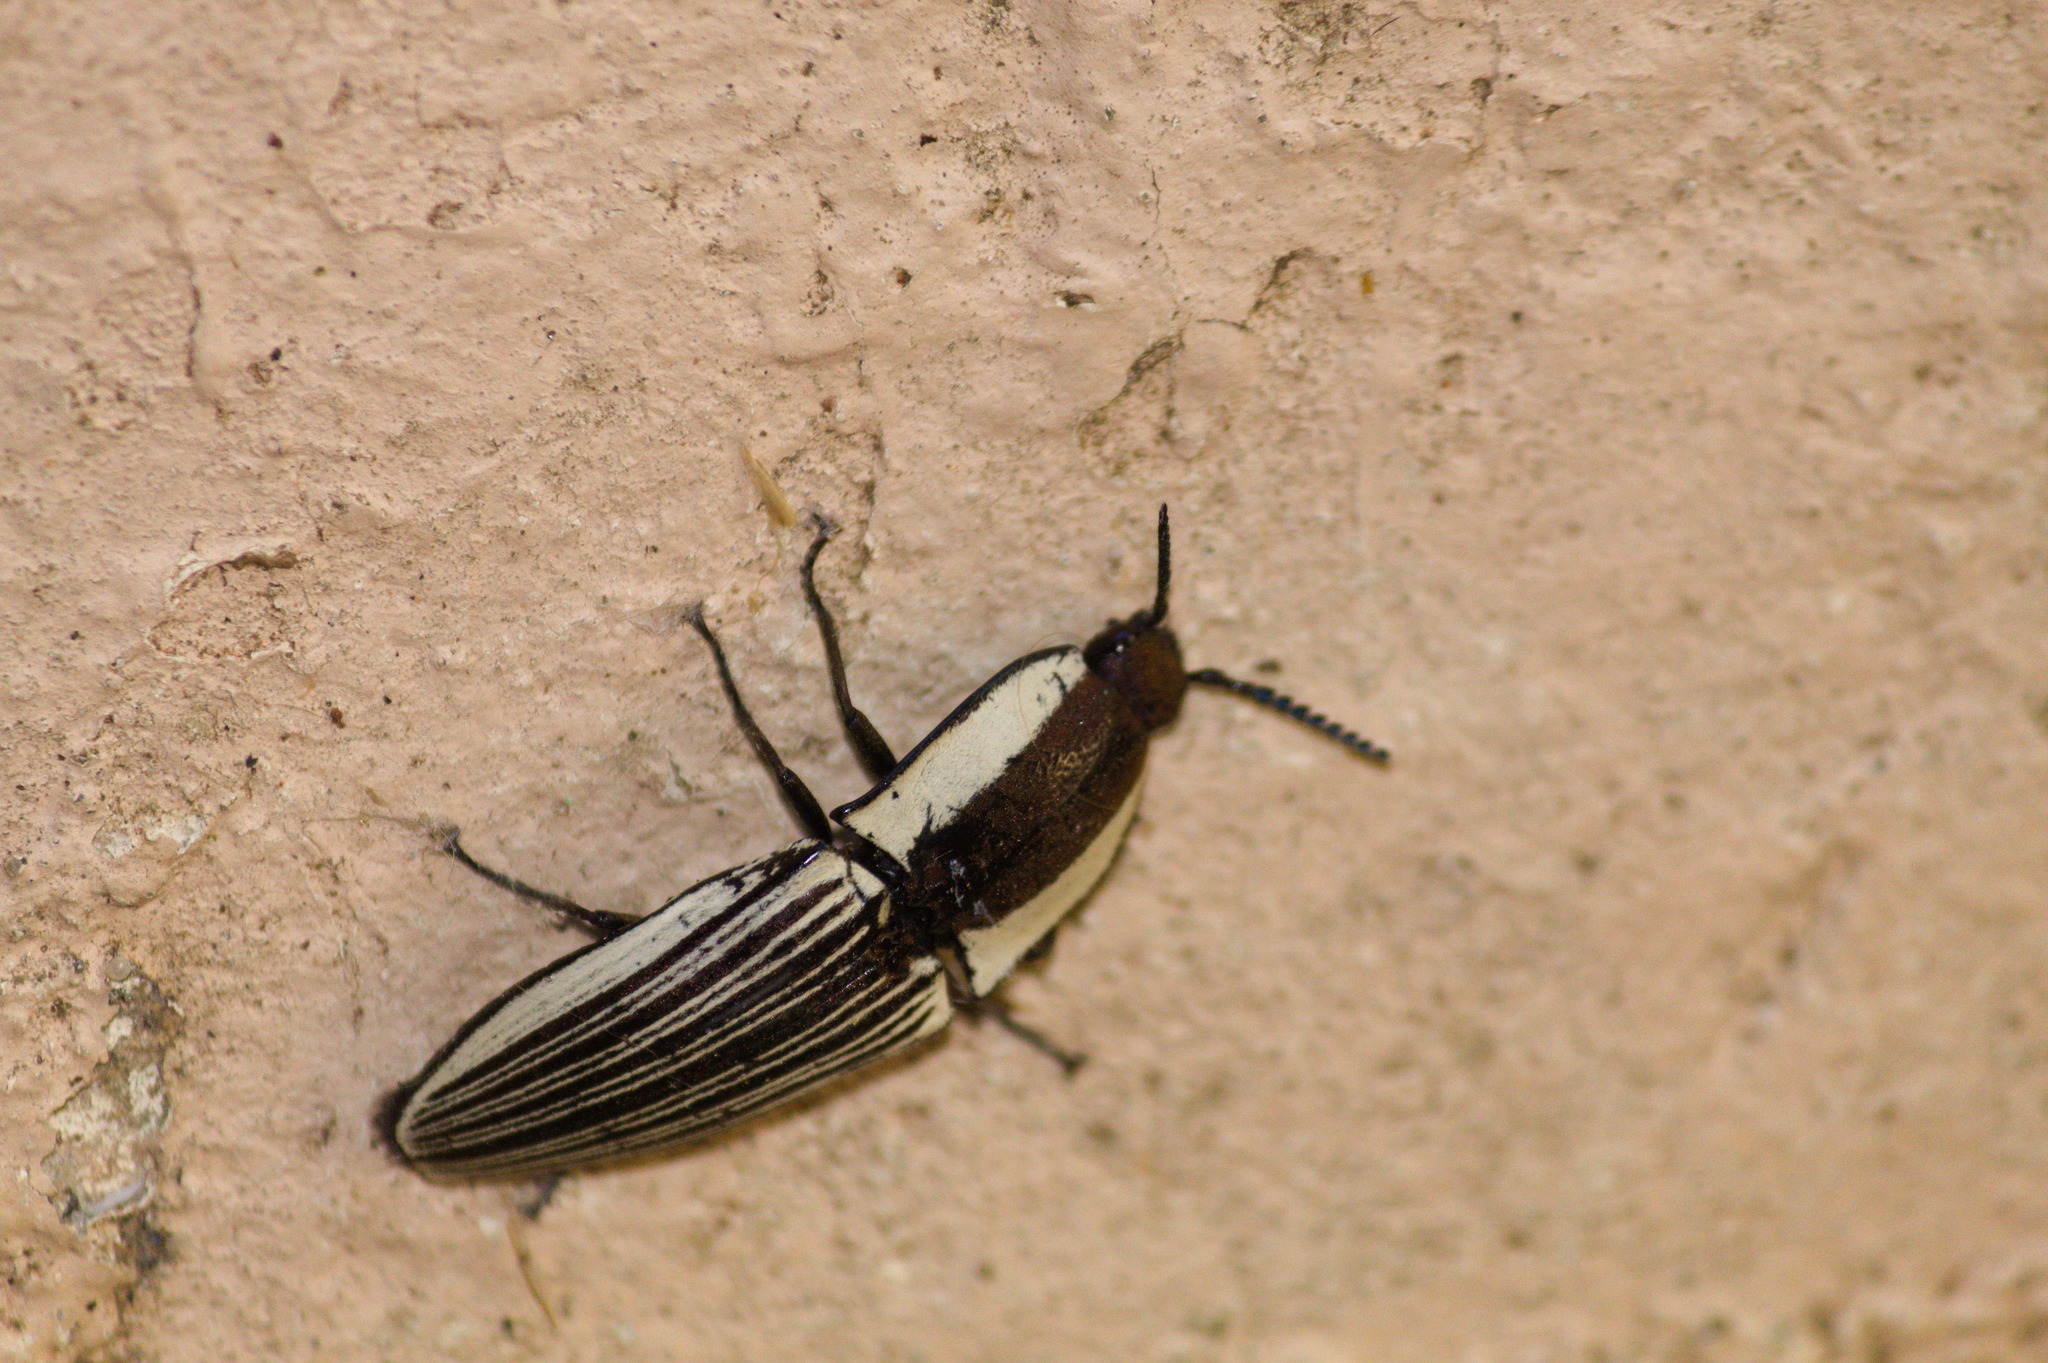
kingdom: Animalia
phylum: Arthropoda
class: Insecta
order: Coleoptera
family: Elateridae
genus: Chalcolepidius
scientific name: Chalcolepidius zonatus
